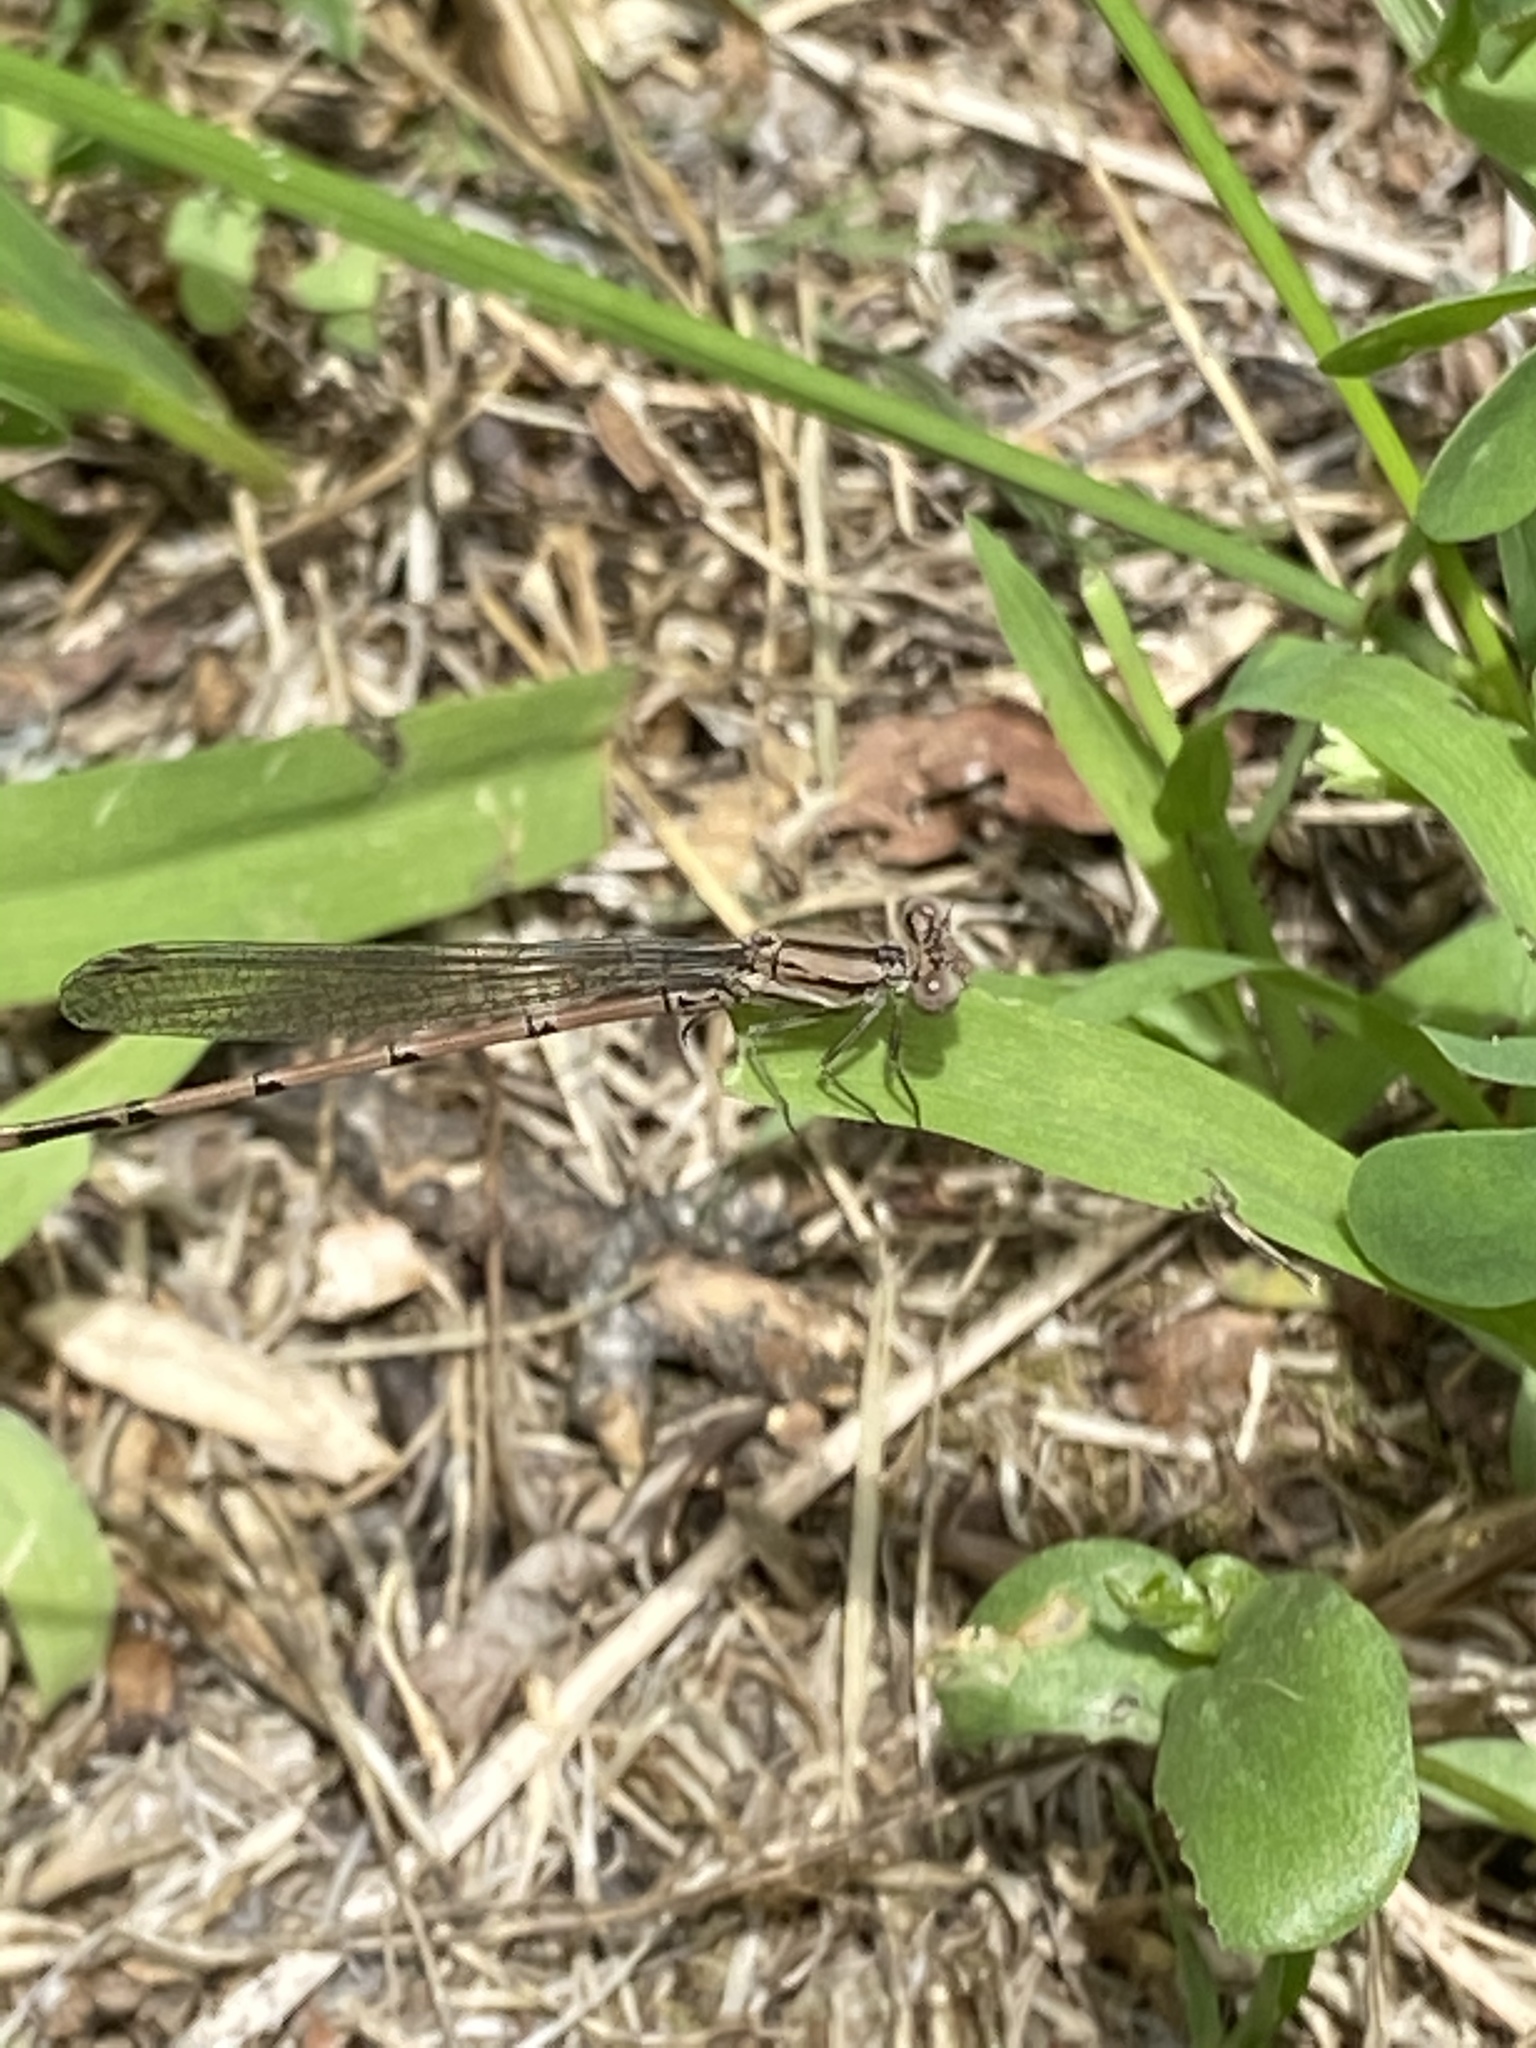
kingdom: Animalia
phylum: Arthropoda
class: Insecta
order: Odonata
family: Coenagrionidae
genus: Argia
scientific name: Argia fumipennis
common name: Variable dancer
